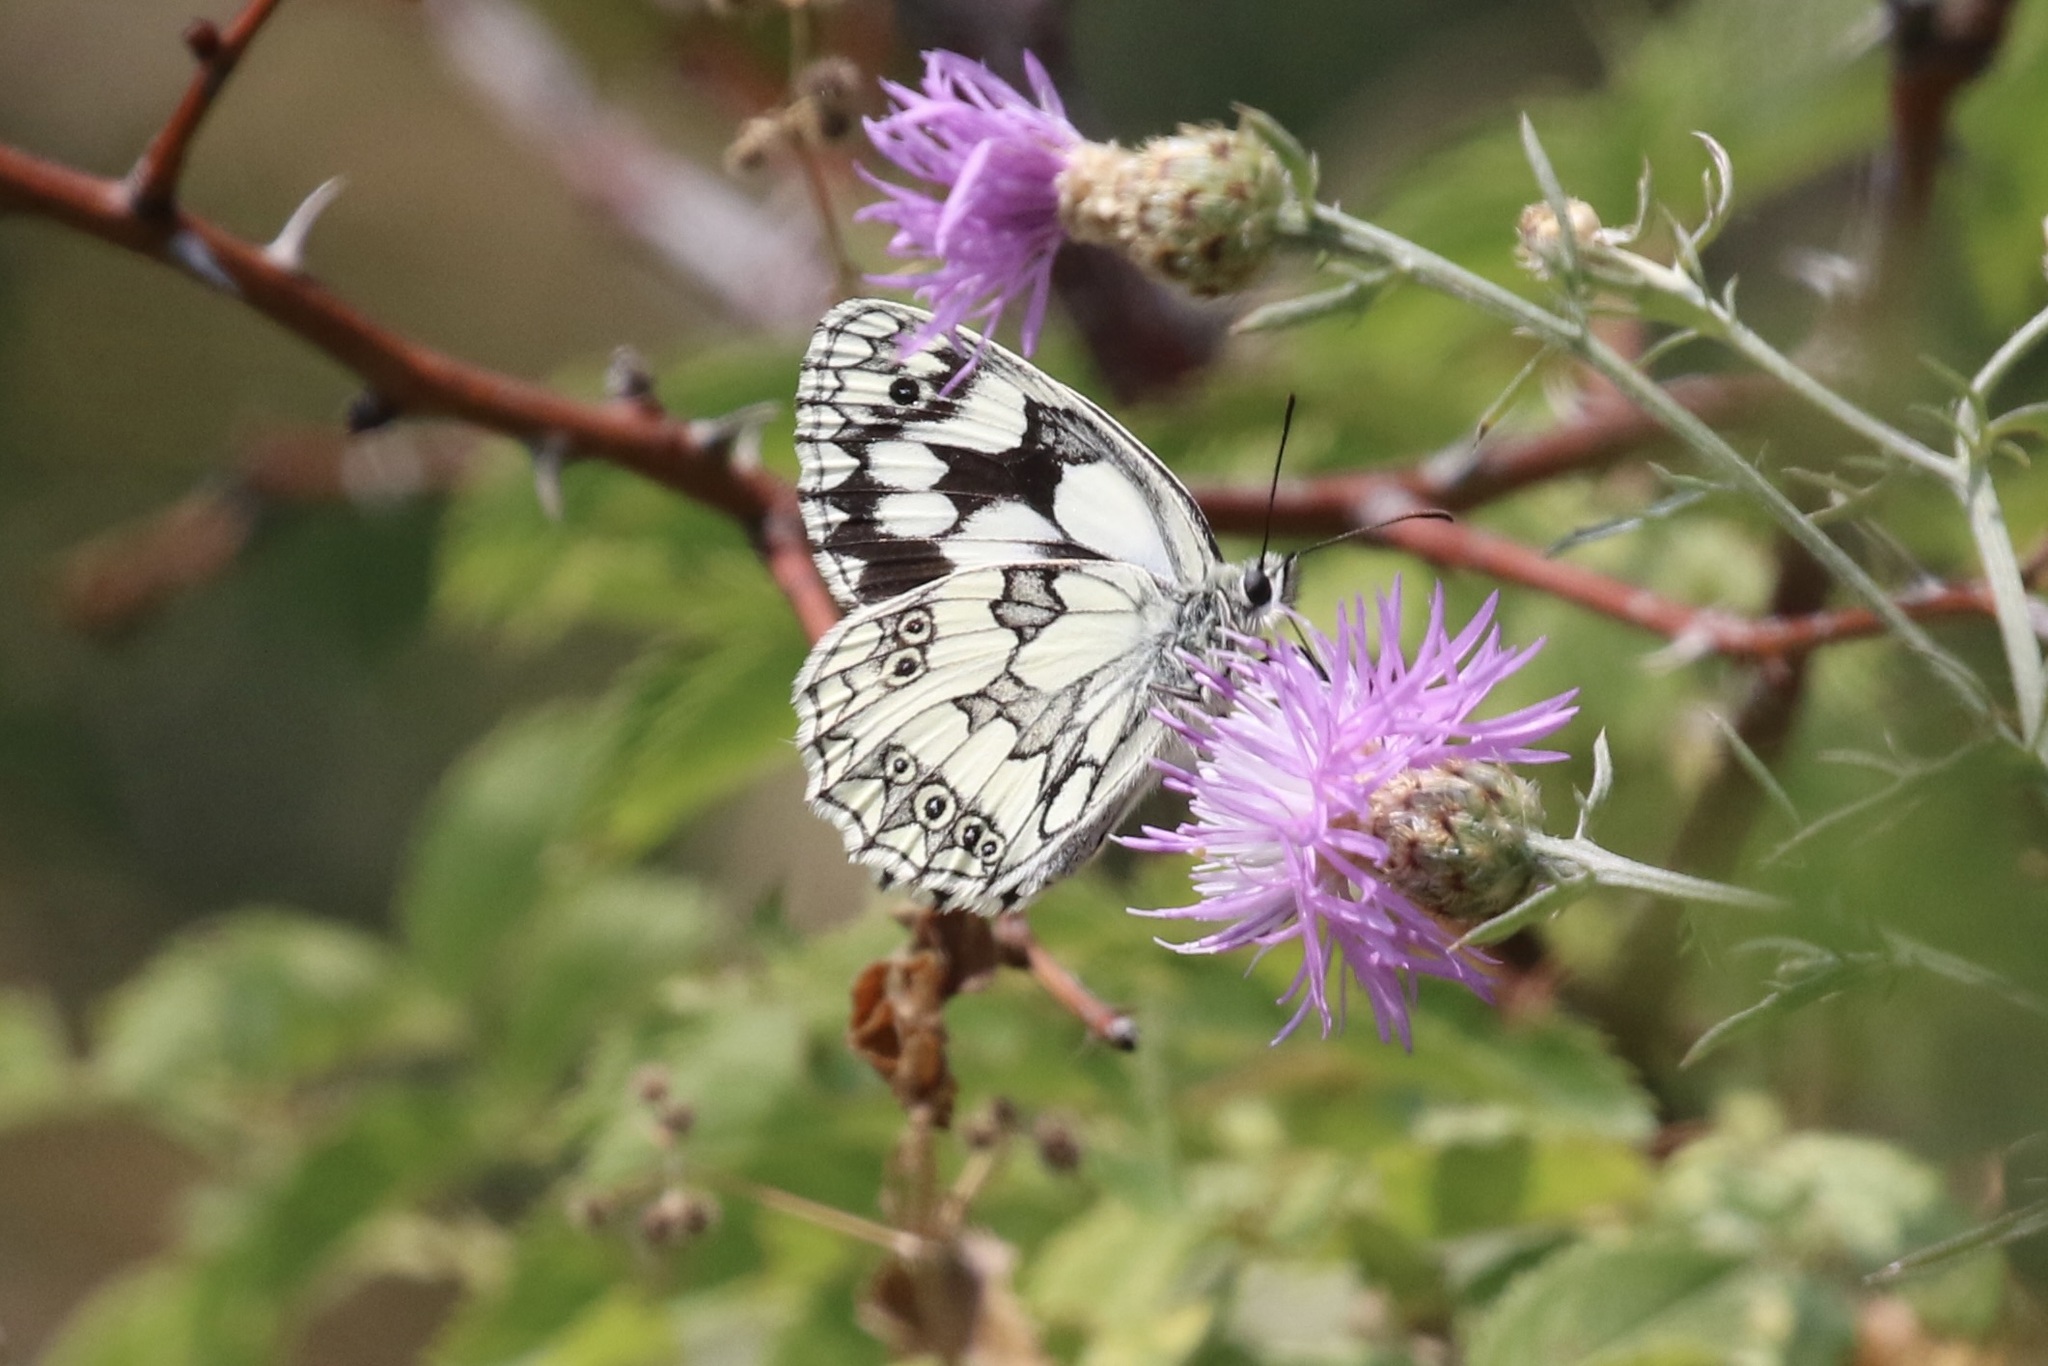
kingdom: Animalia
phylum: Arthropoda
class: Insecta
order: Lepidoptera
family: Nymphalidae
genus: Melanargia
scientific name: Melanargia galathea
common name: Marbled white
